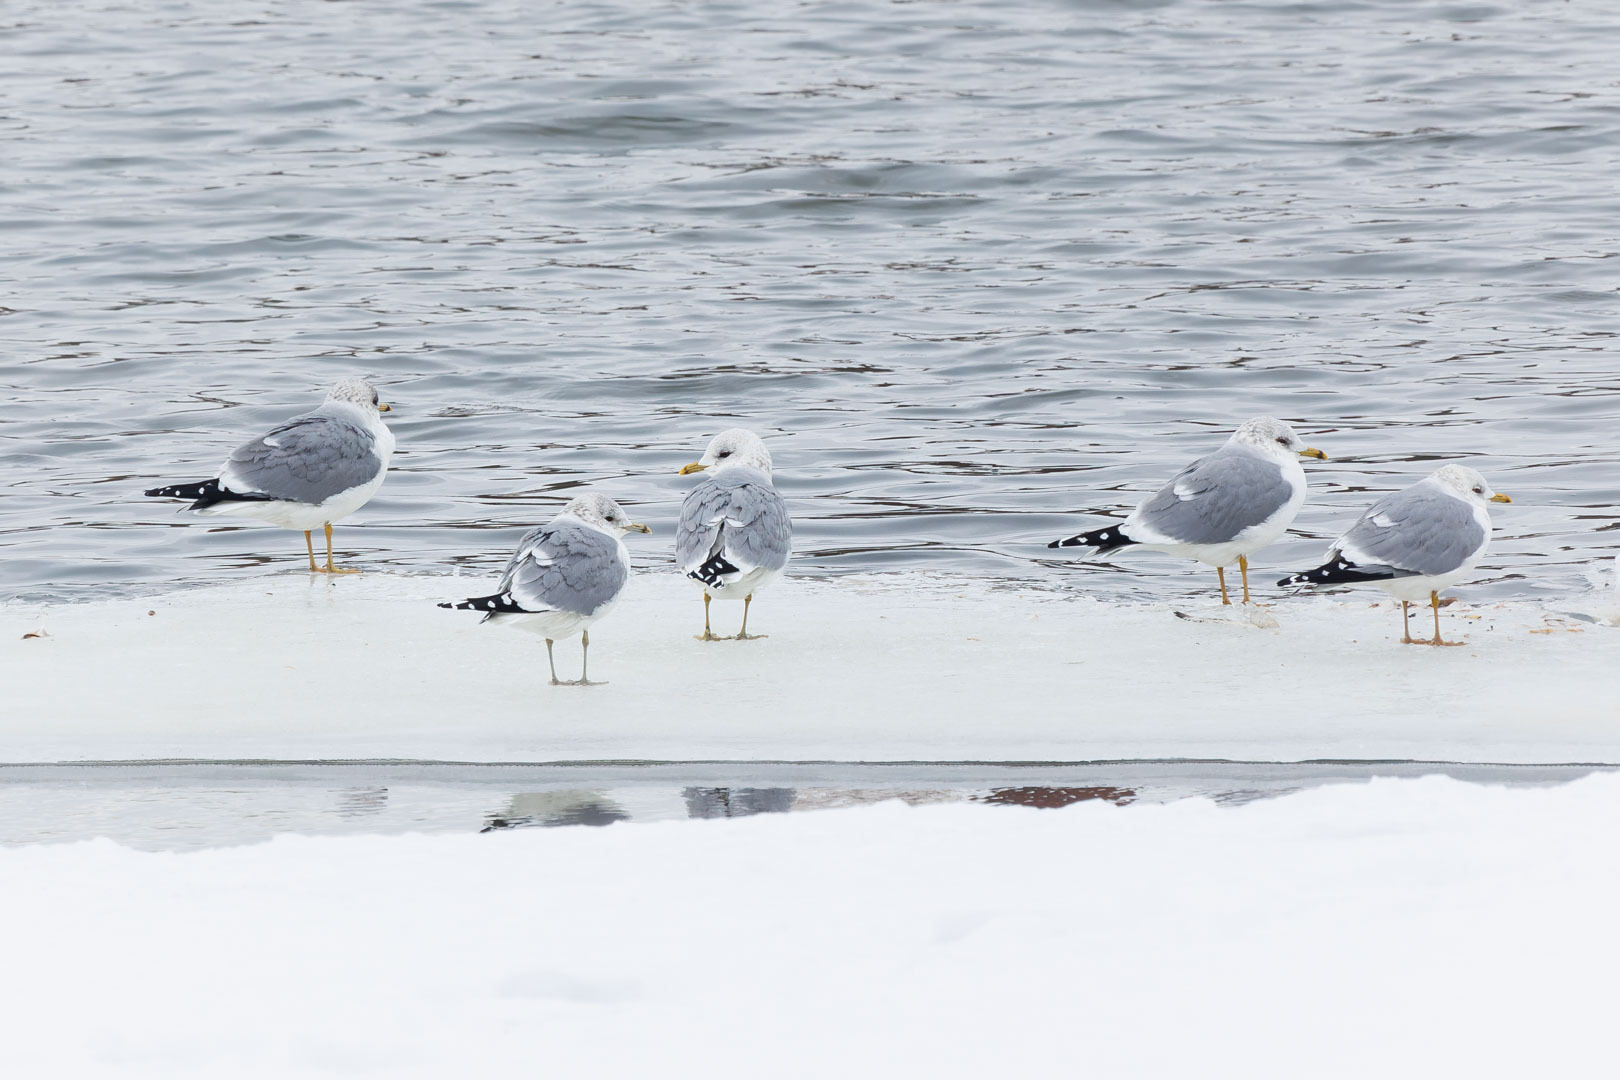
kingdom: Animalia
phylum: Chordata
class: Aves
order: Charadriiformes
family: Laridae
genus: Larus
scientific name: Larus canus
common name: Mew gull
